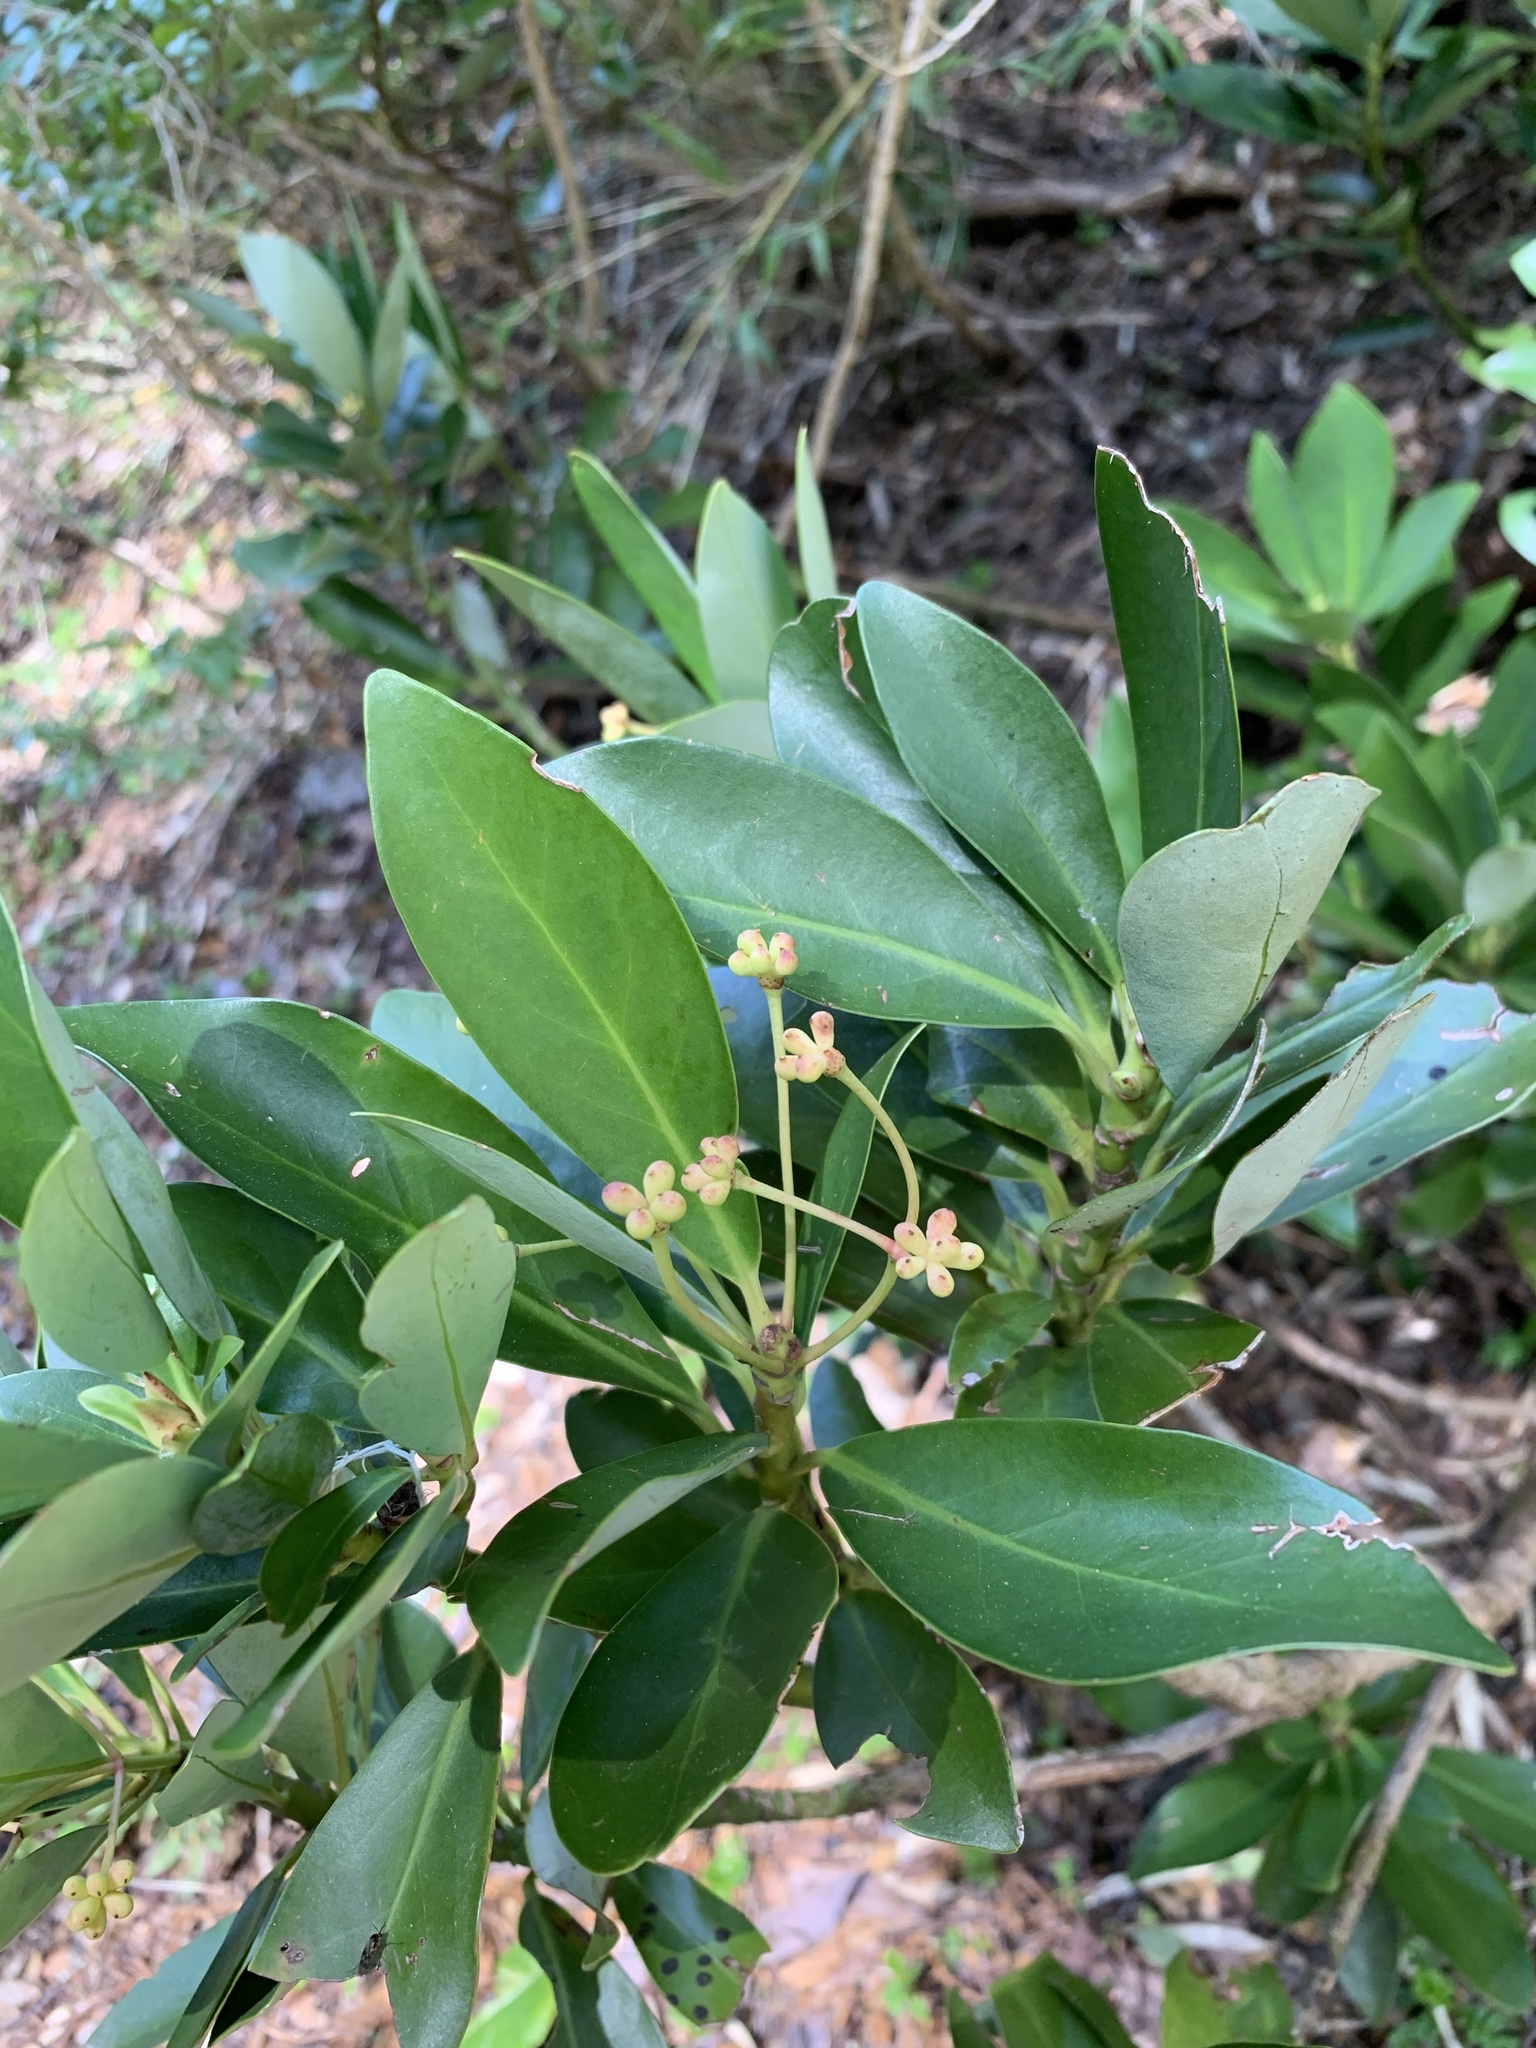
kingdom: Plantae
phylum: Tracheophyta
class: Magnoliopsida
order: Canellales
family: Winteraceae
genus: Drimys
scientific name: Drimys andina
